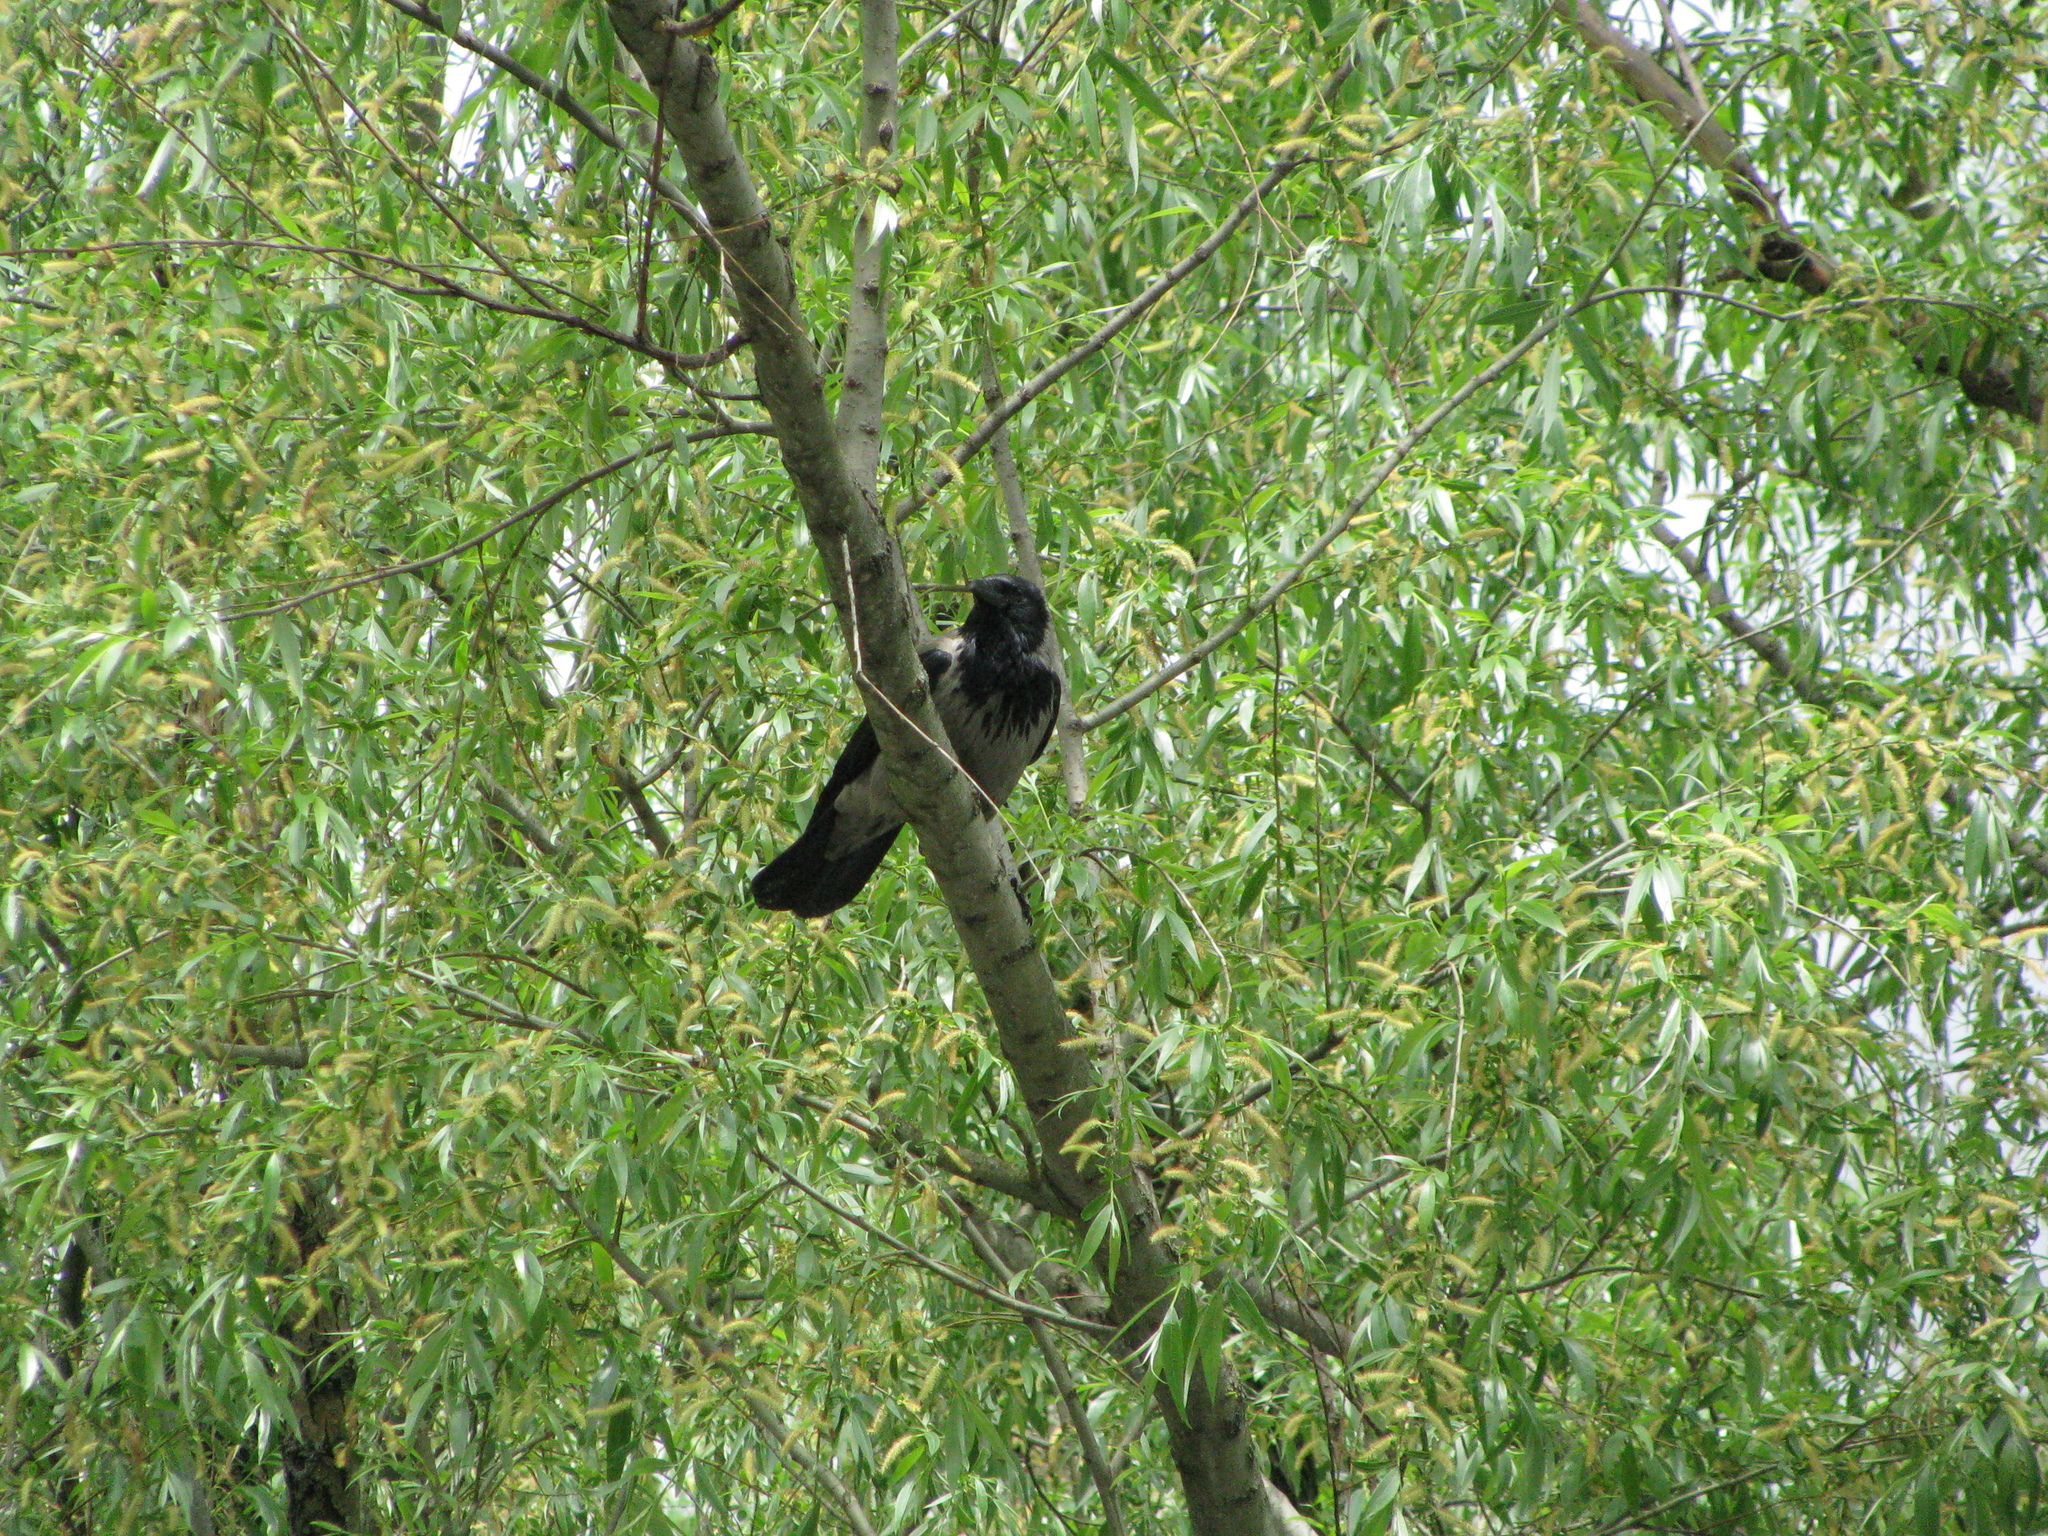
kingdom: Animalia
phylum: Chordata
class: Aves
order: Passeriformes
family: Corvidae
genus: Corvus
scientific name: Corvus cornix
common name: Hooded crow
